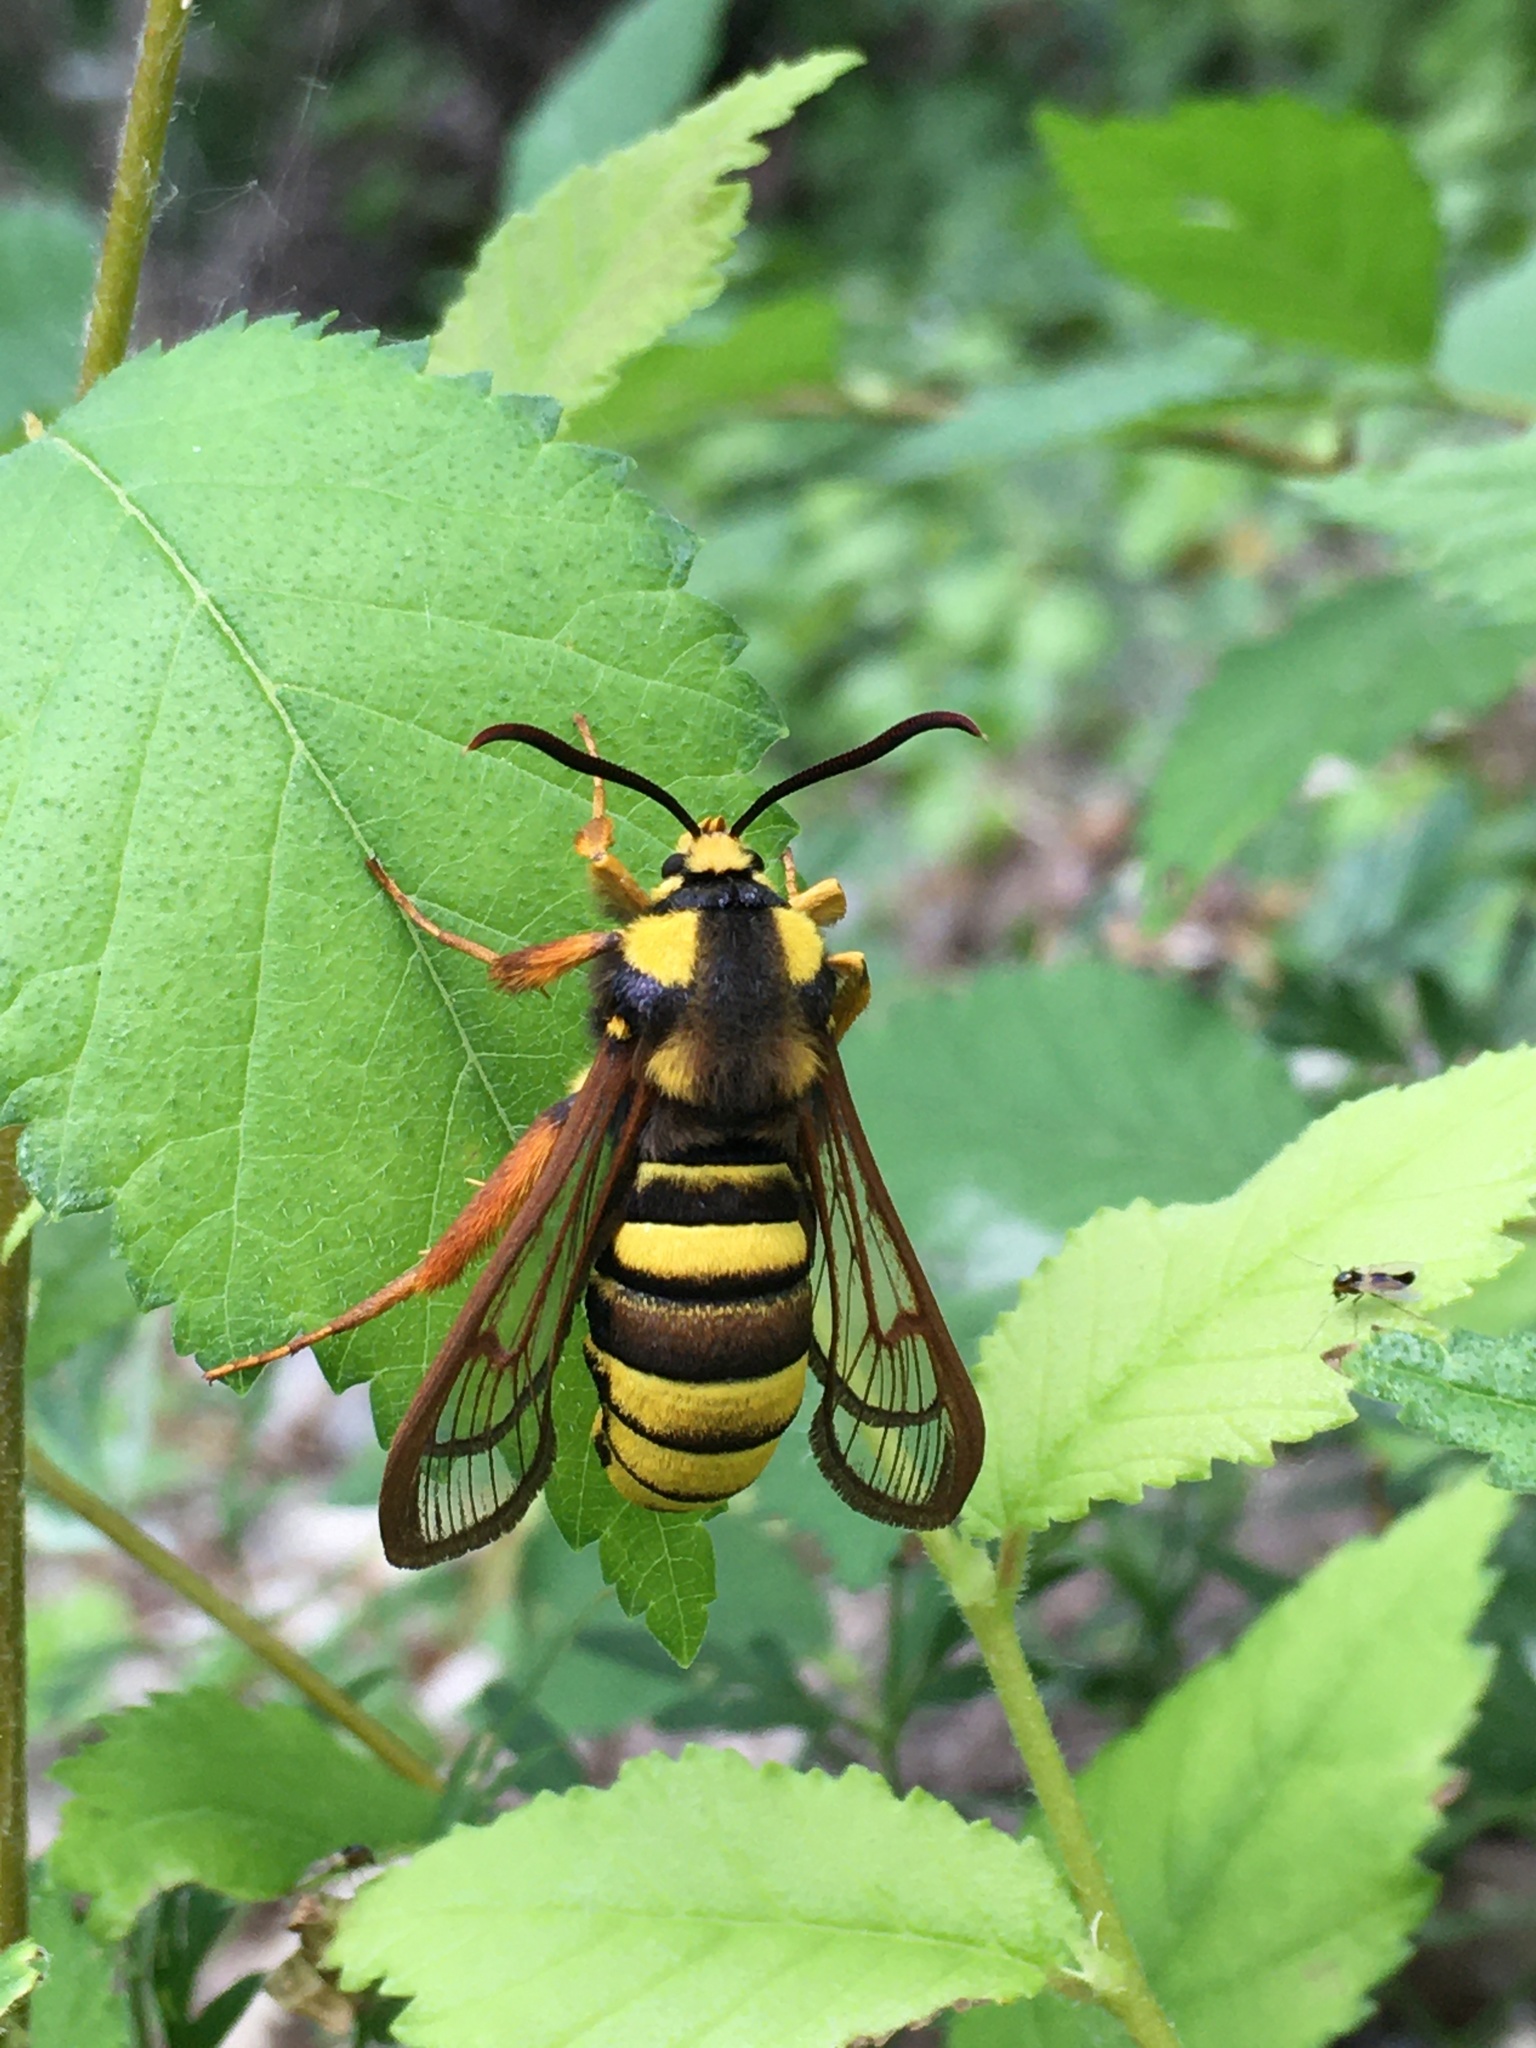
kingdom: Animalia
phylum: Arthropoda
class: Insecta
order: Lepidoptera
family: Sesiidae
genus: Sesia
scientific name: Sesia apiformis
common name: Hornet moth
